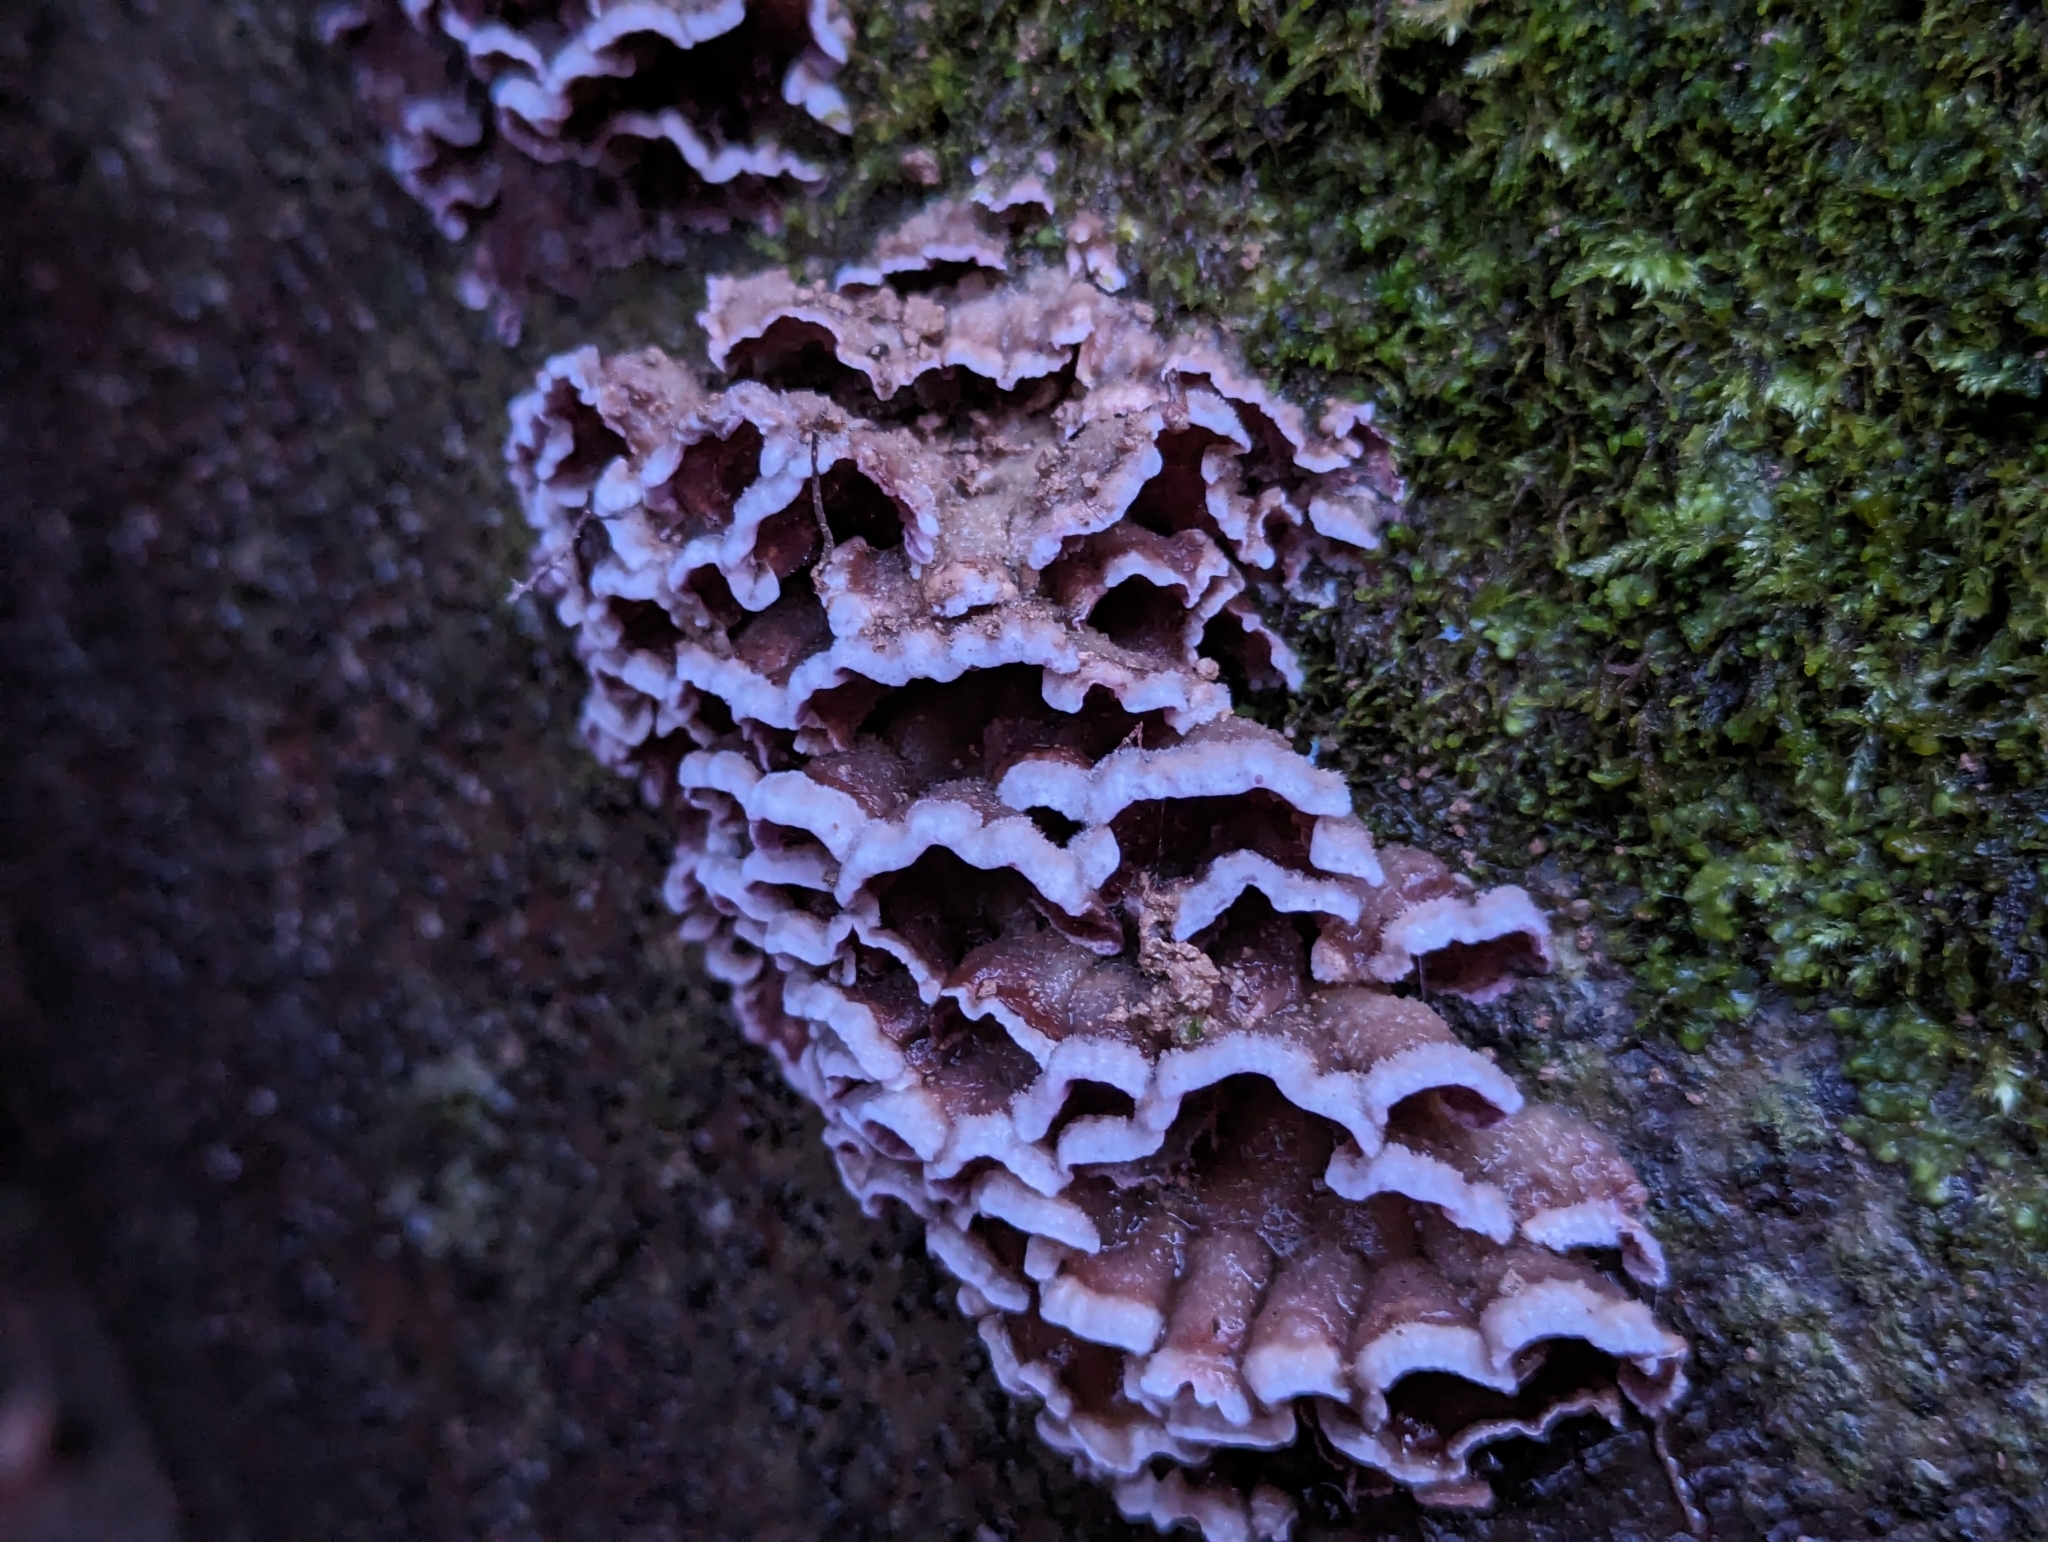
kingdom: Fungi
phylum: Basidiomycota
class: Agaricomycetes
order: Agaricales
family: Cyphellaceae
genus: Chondrostereum
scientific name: Chondrostereum purpureum
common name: Silver leaf disease
